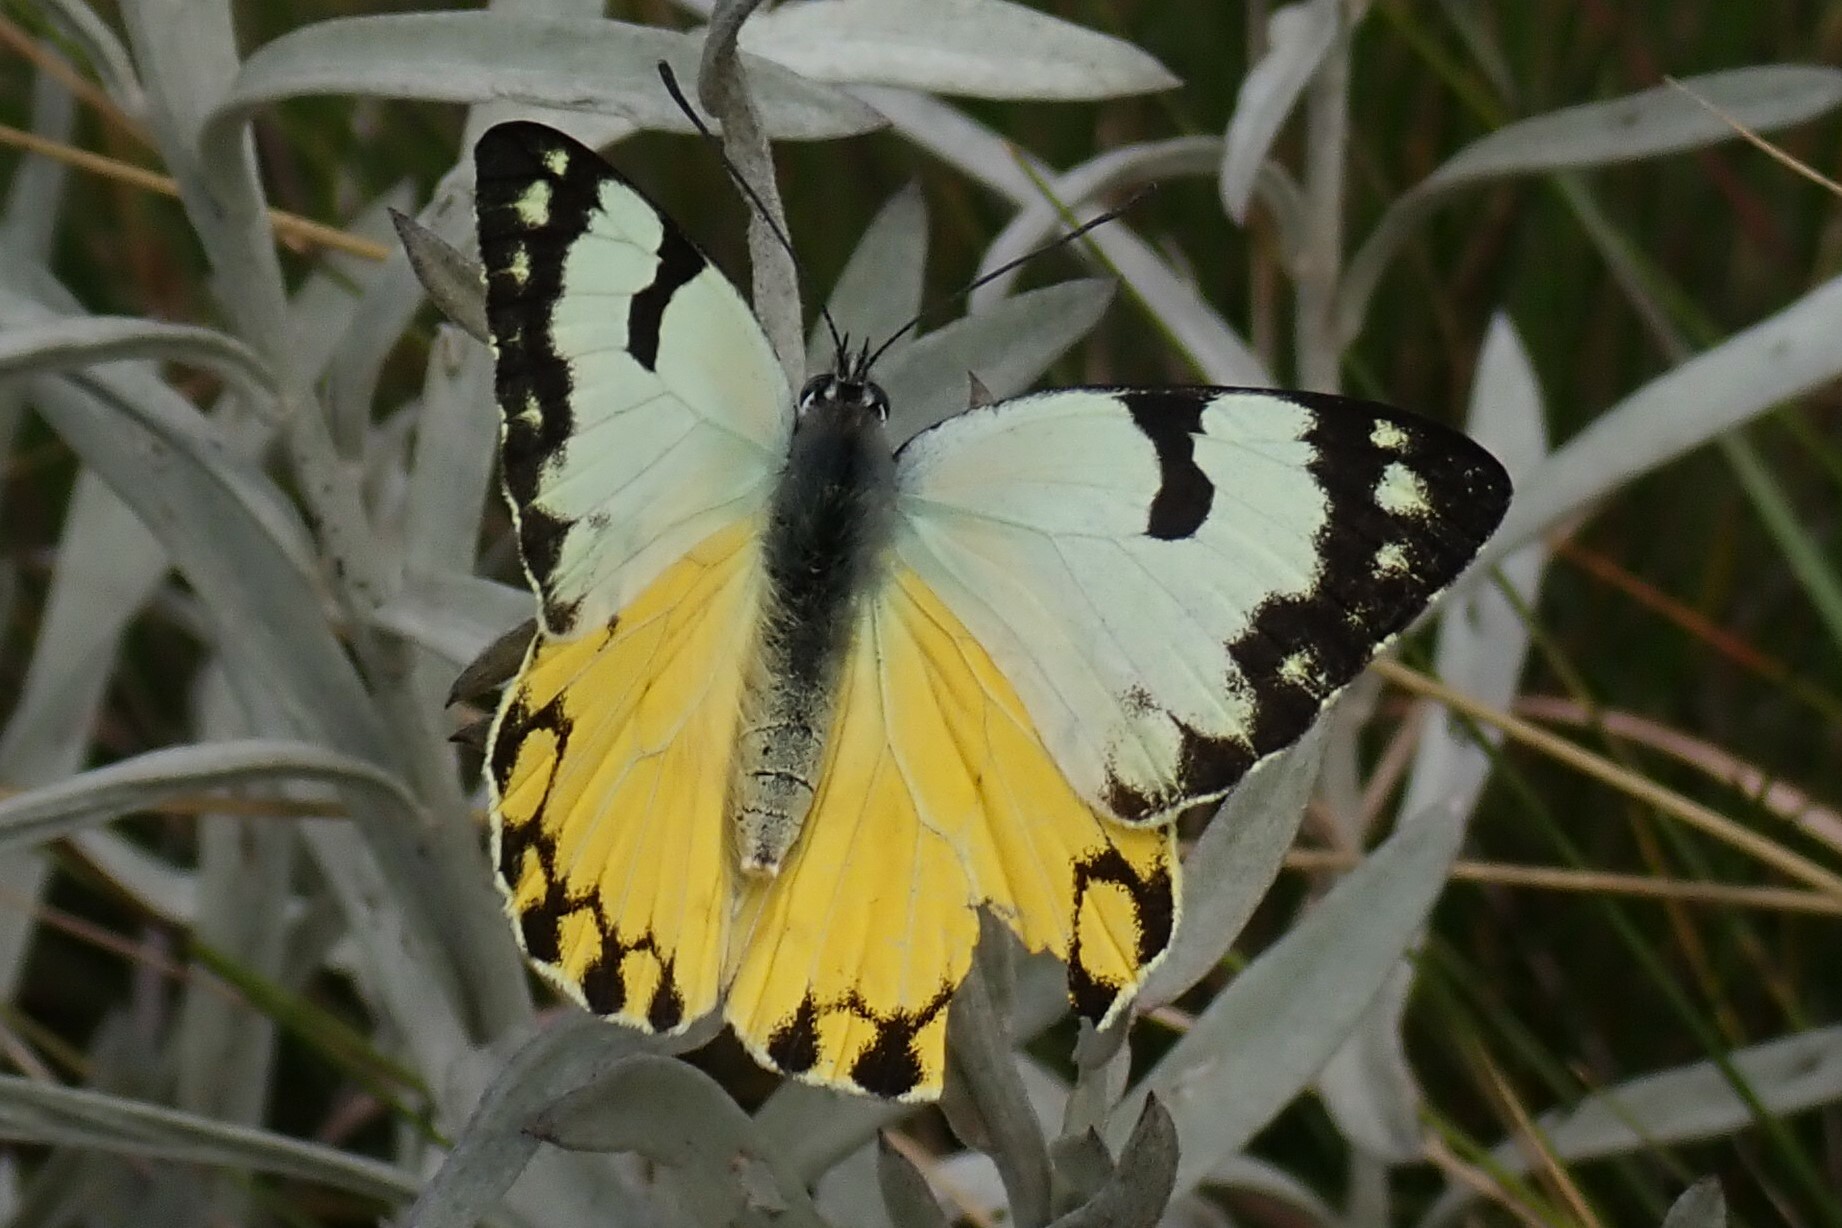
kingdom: Animalia
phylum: Arthropoda
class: Insecta
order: Lepidoptera
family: Pieridae
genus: Belenois
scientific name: Belenois zochalia
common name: Forest caper white
